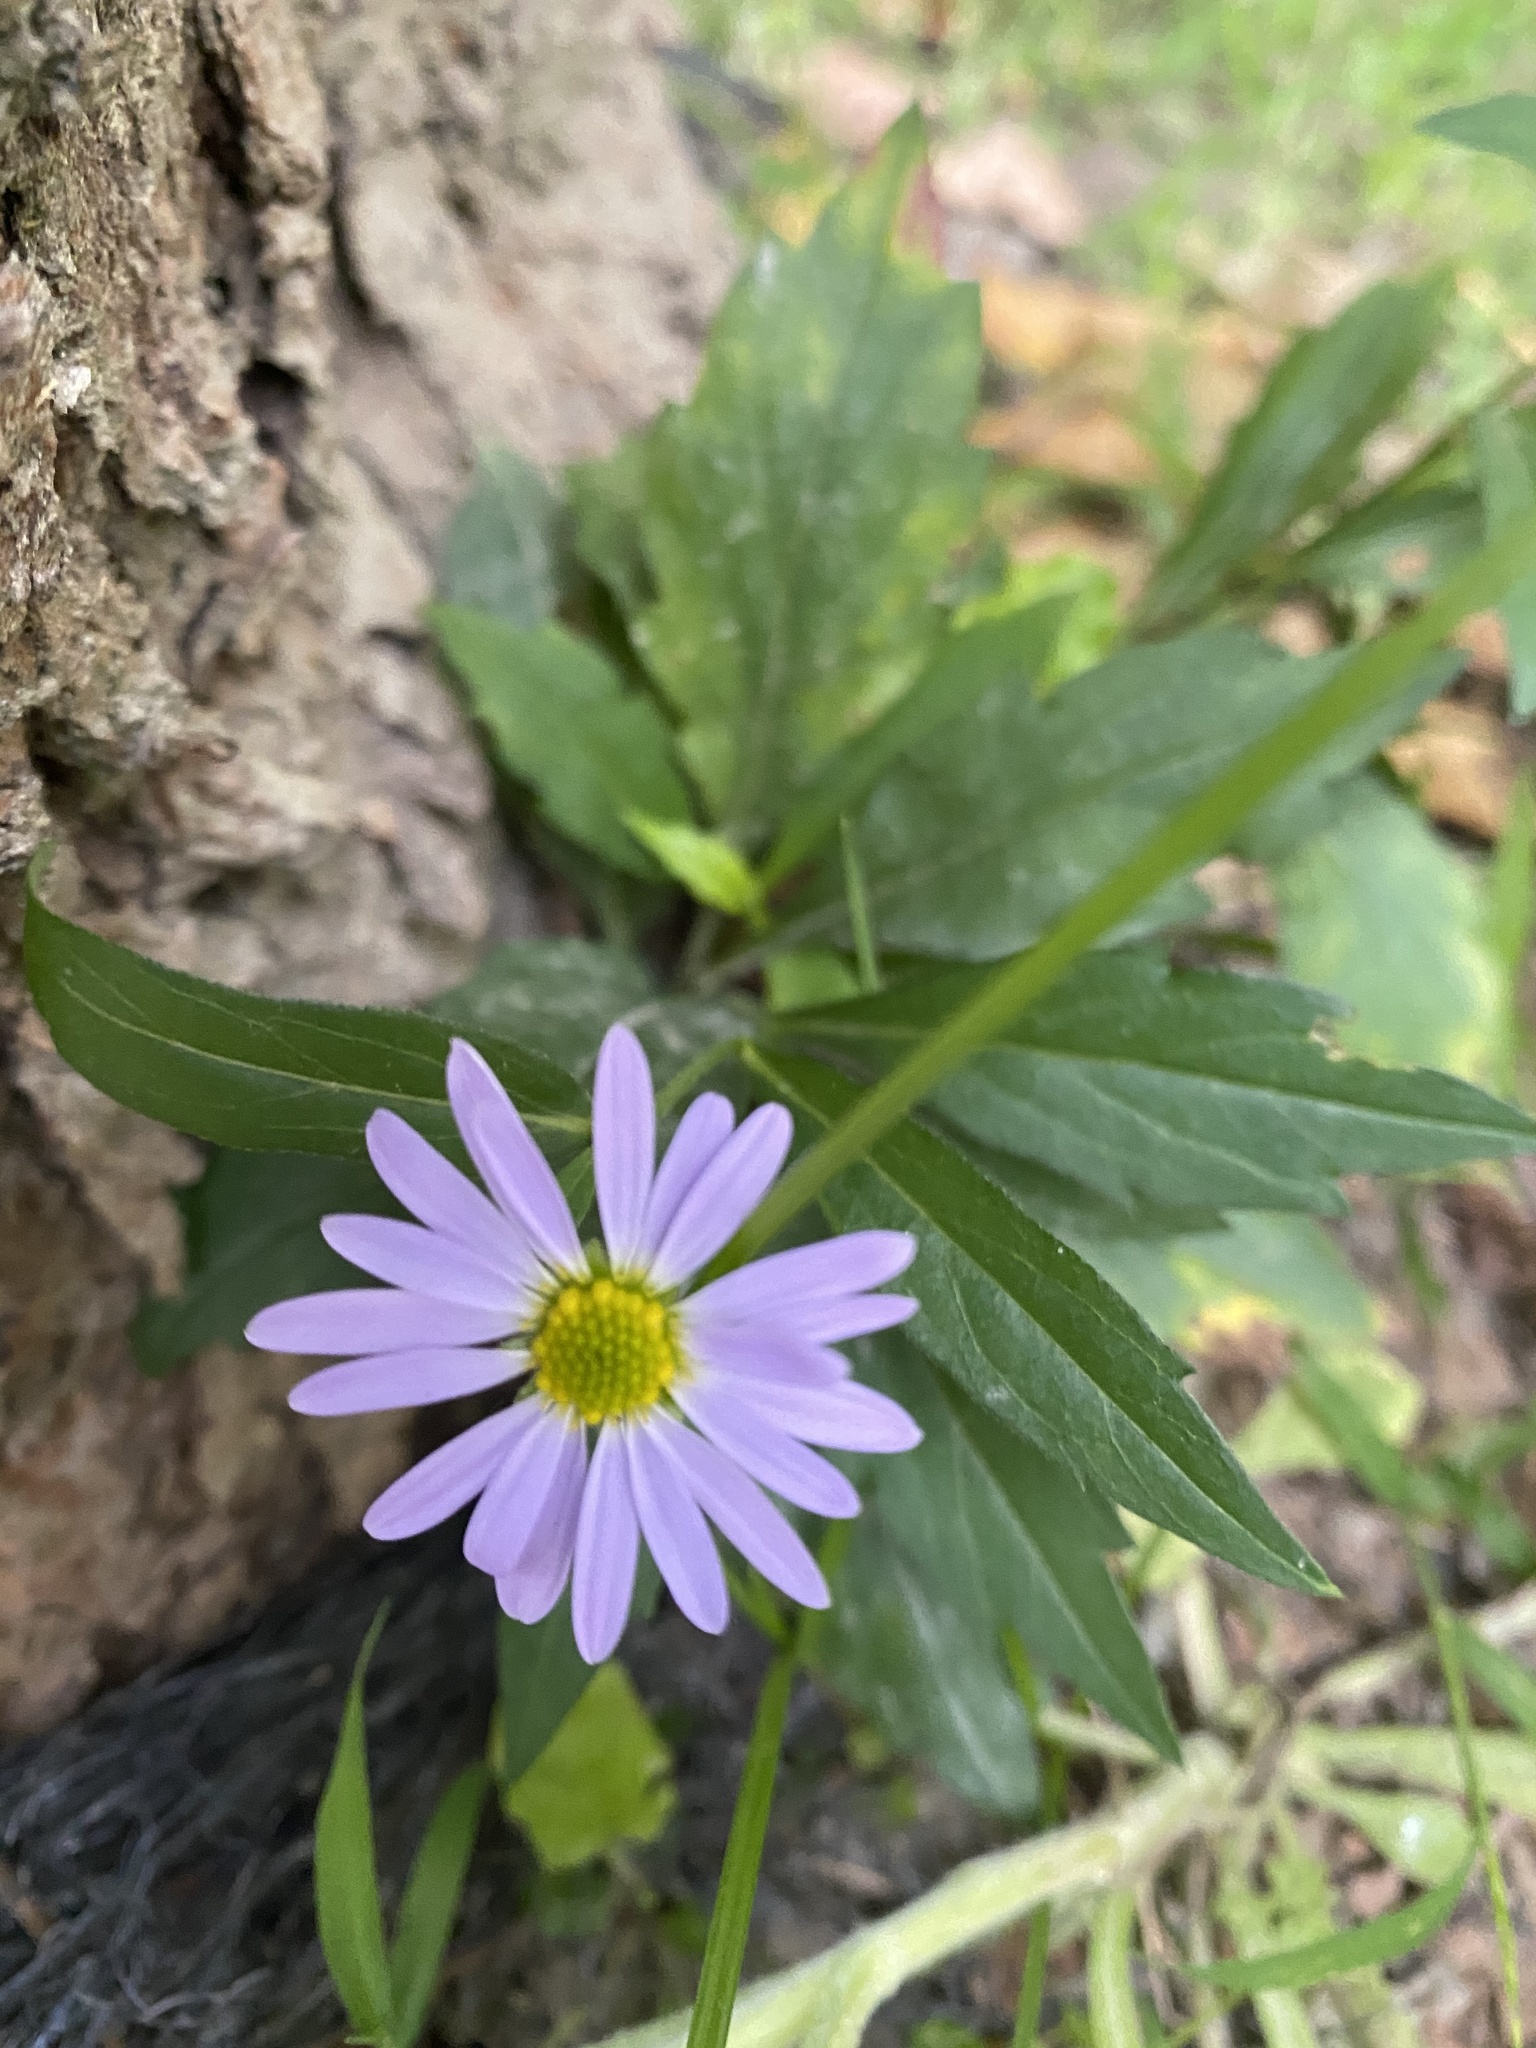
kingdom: Plantae
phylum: Tracheophyta
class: Magnoliopsida
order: Asterales
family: Asteraceae
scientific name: Asteraceae
